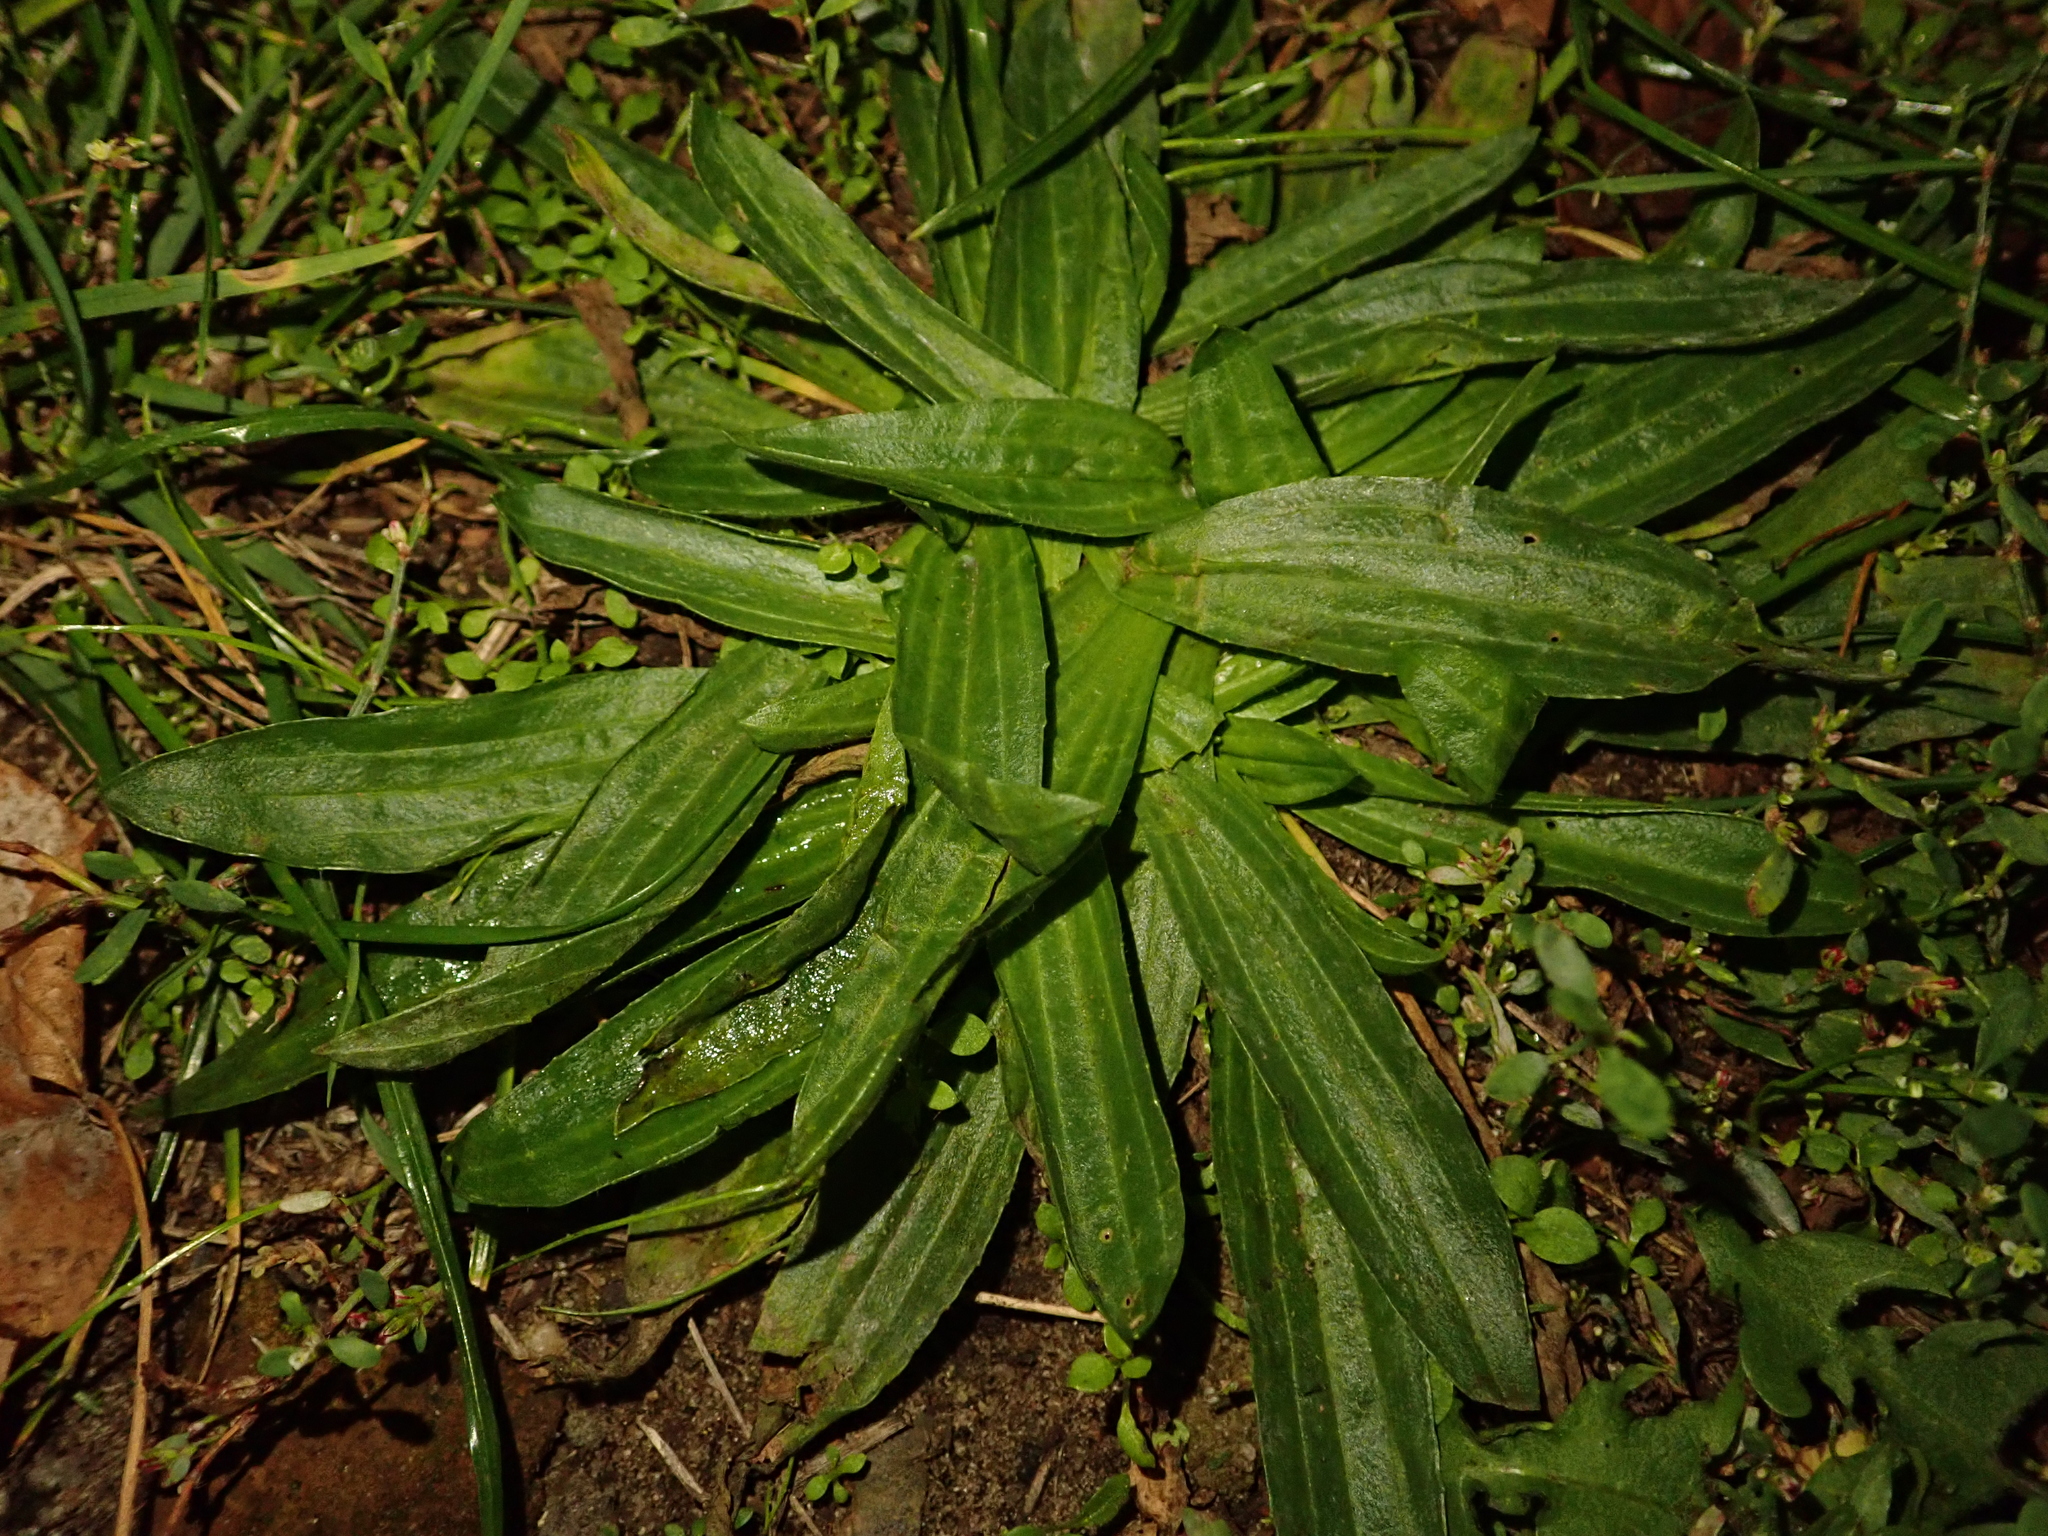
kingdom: Plantae
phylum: Tracheophyta
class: Magnoliopsida
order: Lamiales
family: Plantaginaceae
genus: Plantago
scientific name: Plantago lanceolata
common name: Ribwort plantain
